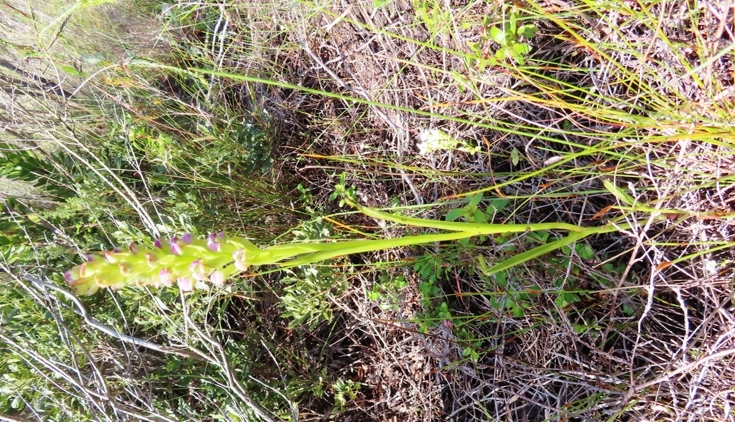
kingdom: Plantae
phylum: Tracheophyta
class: Liliopsida
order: Asparagales
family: Orchidaceae
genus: Evotella
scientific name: Evotella carnosa
